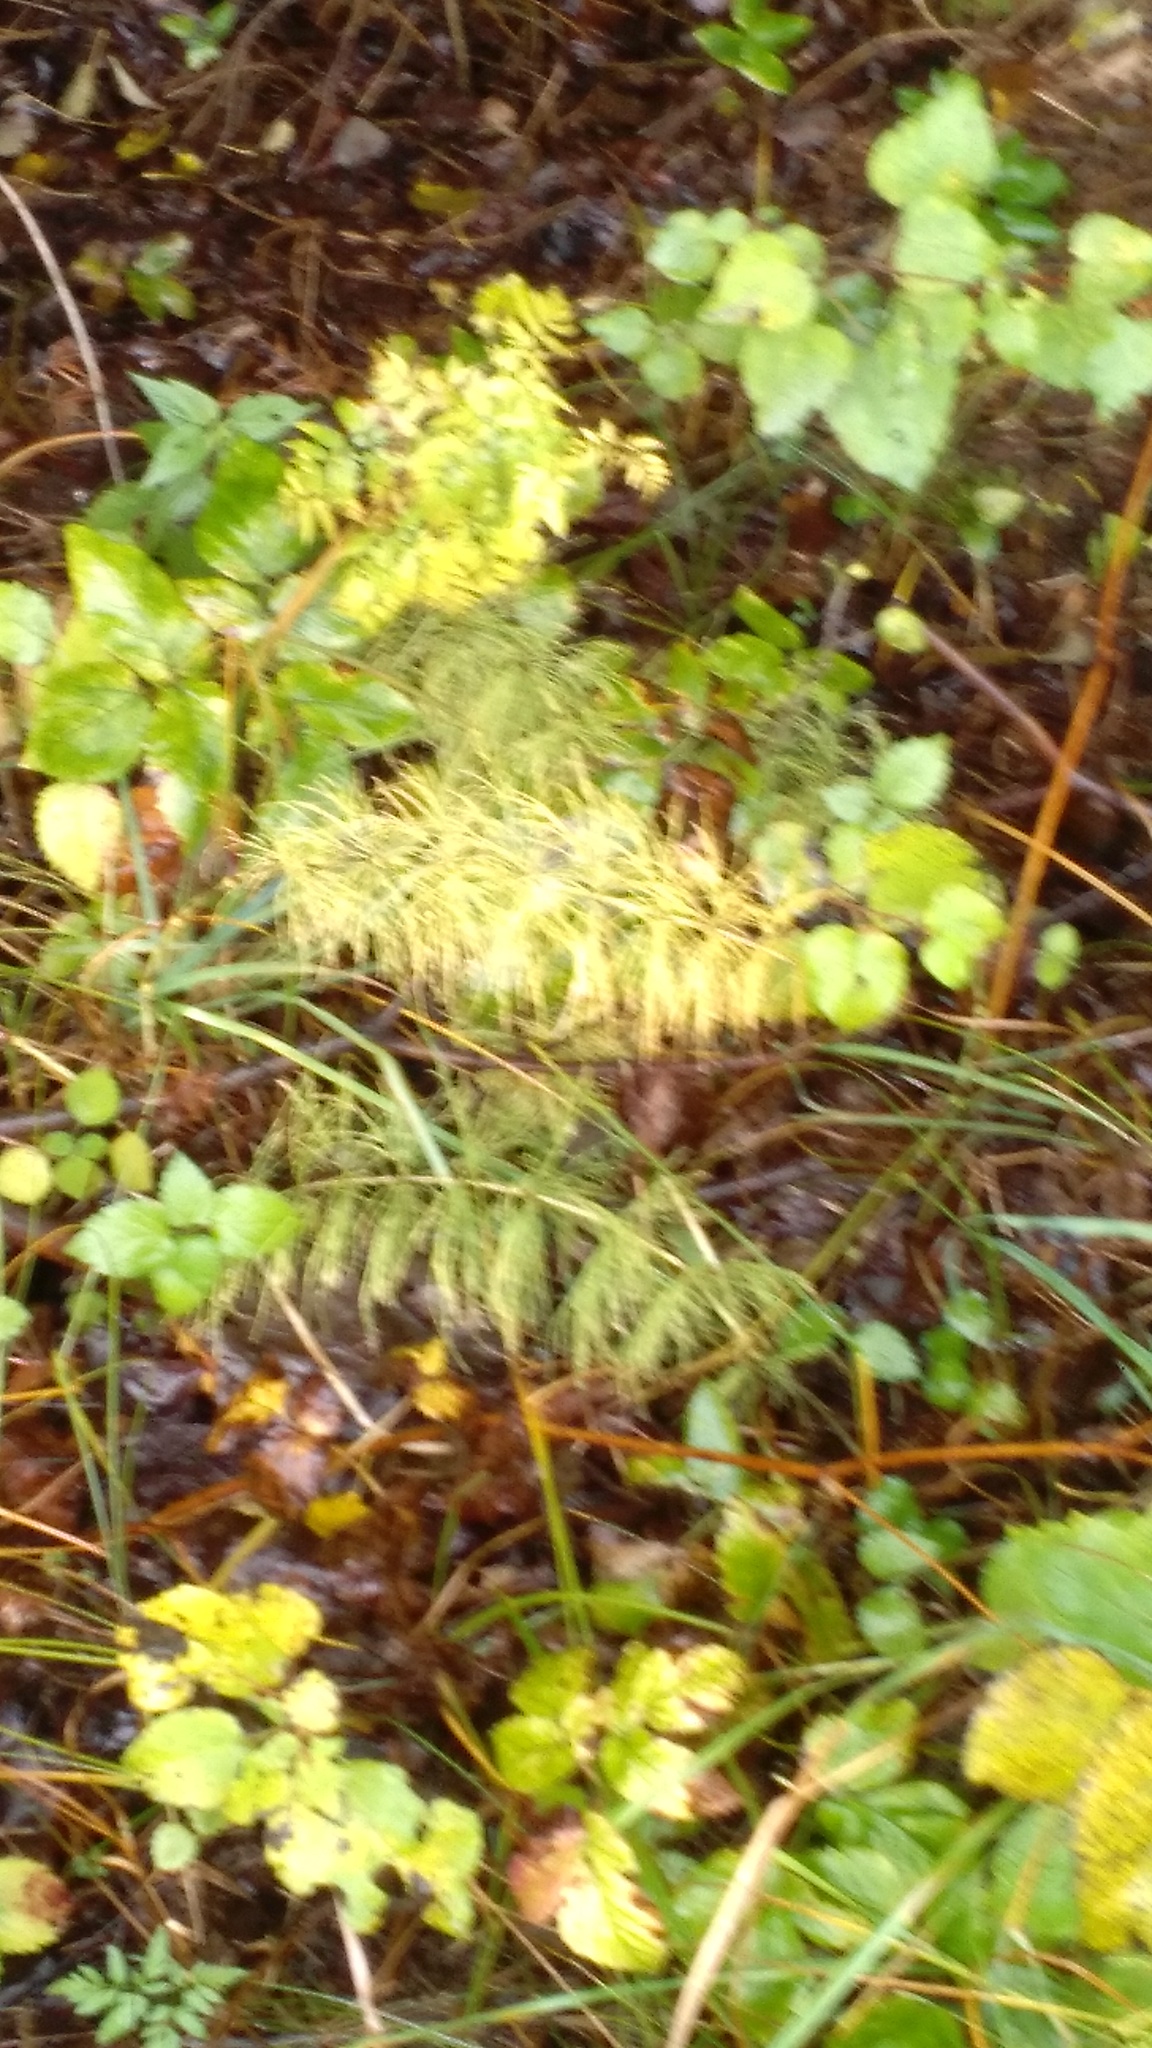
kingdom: Plantae
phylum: Tracheophyta
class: Polypodiopsida
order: Equisetales
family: Equisetaceae
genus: Equisetum
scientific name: Equisetum sylvaticum
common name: Wood horsetail
